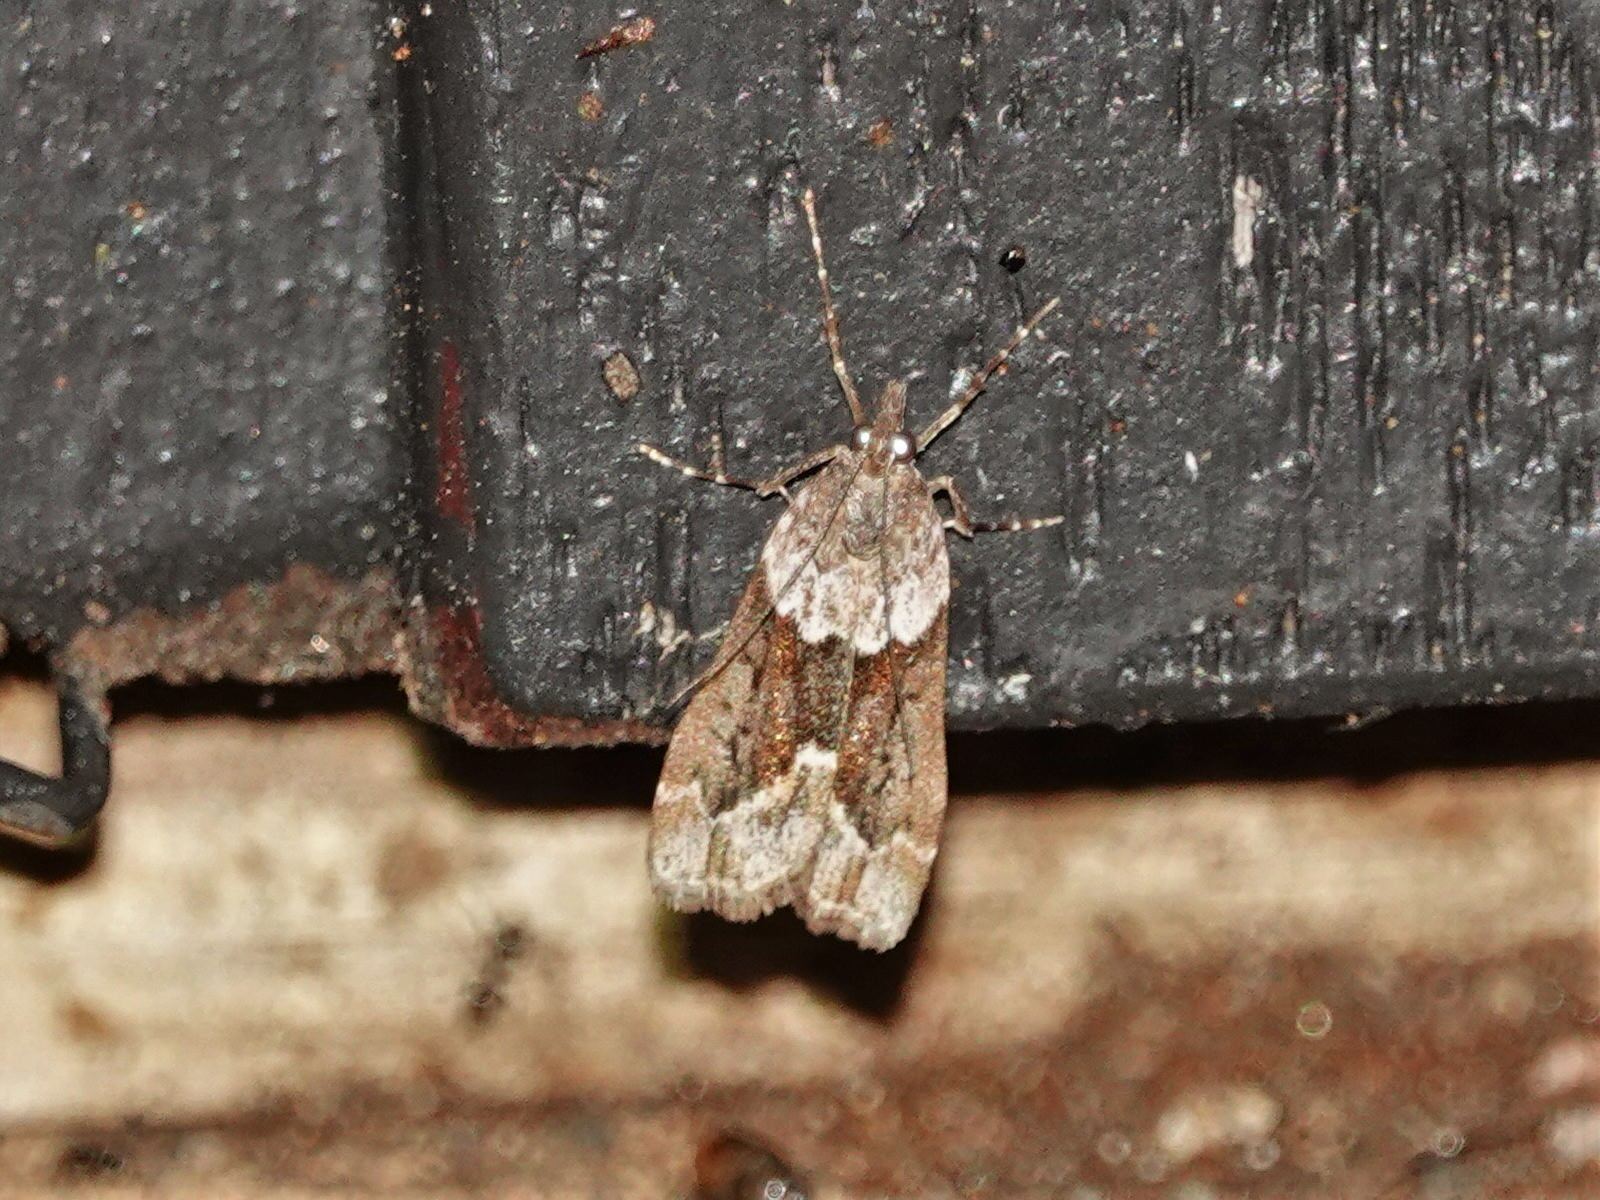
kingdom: Animalia
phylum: Arthropoda
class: Insecta
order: Lepidoptera
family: Crambidae
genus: Eudonia
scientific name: Eudonia submarginalis
